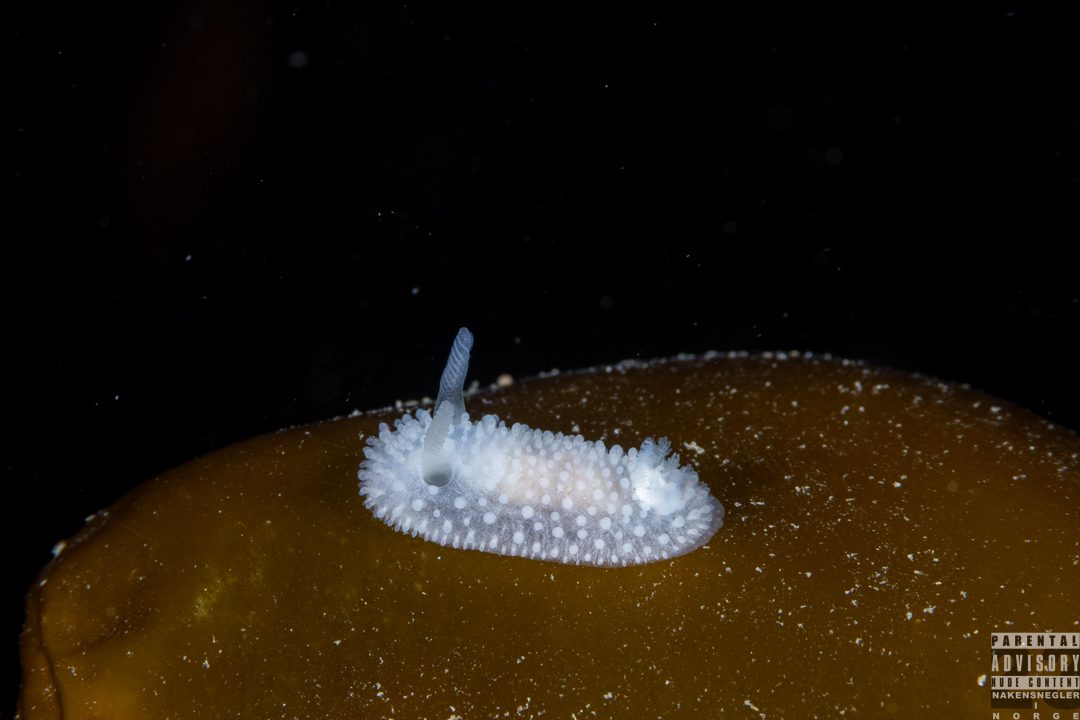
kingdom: Animalia
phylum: Mollusca
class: Gastropoda
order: Nudibranchia
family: Onchidorididae
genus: Onchidoris
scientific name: Onchidoris muricata
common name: Rough doris
